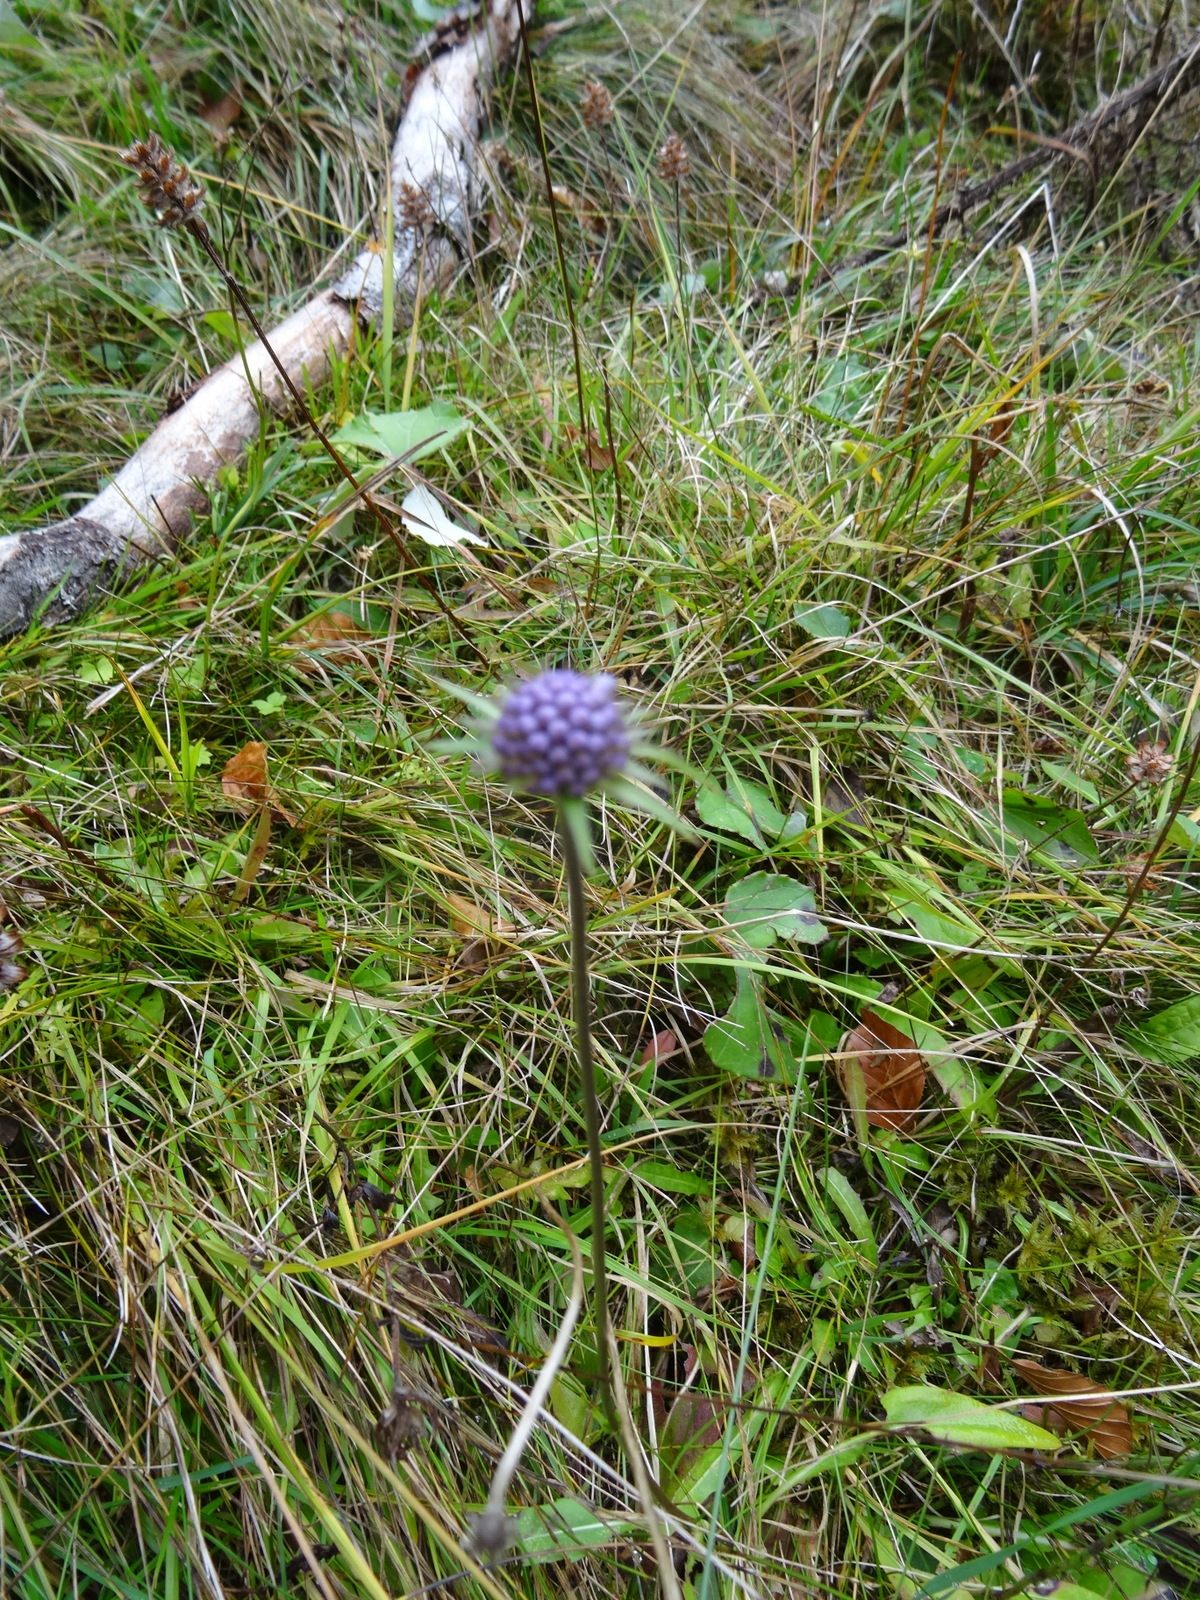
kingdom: Plantae
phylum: Tracheophyta
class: Magnoliopsida
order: Dipsacales
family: Caprifoliaceae
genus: Succisa
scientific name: Succisa pratensis
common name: Devil's-bit
